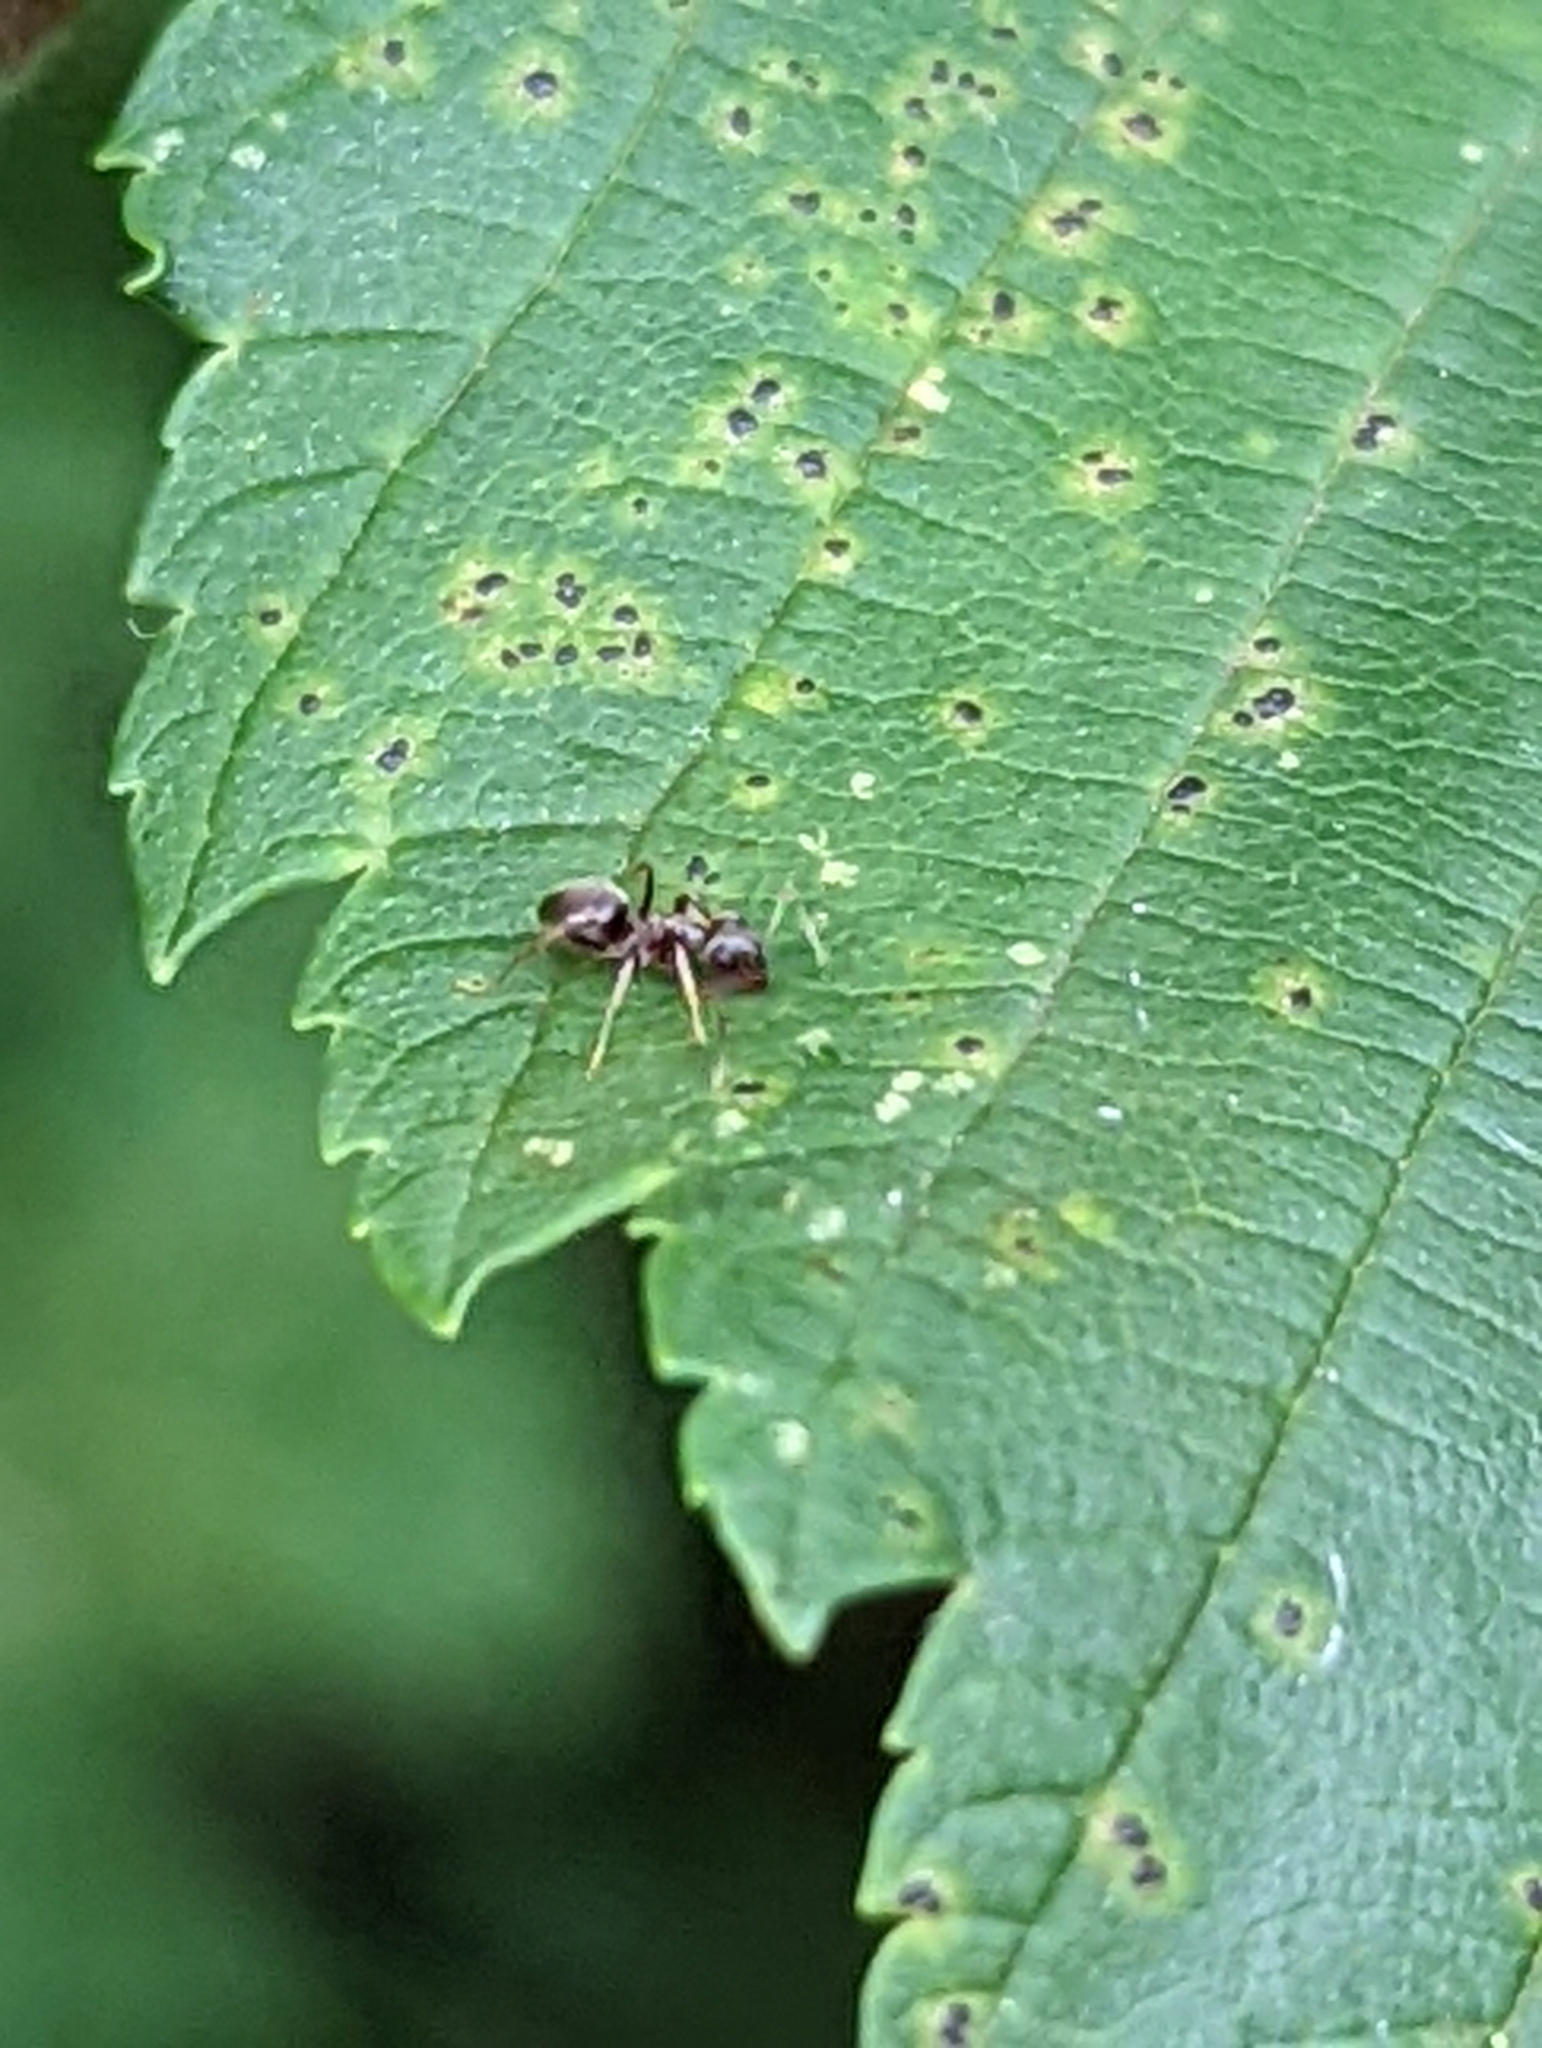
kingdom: Animalia
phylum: Arthropoda
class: Insecta
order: Hymenoptera
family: Formicidae
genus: Lasius
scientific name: Lasius americanus
